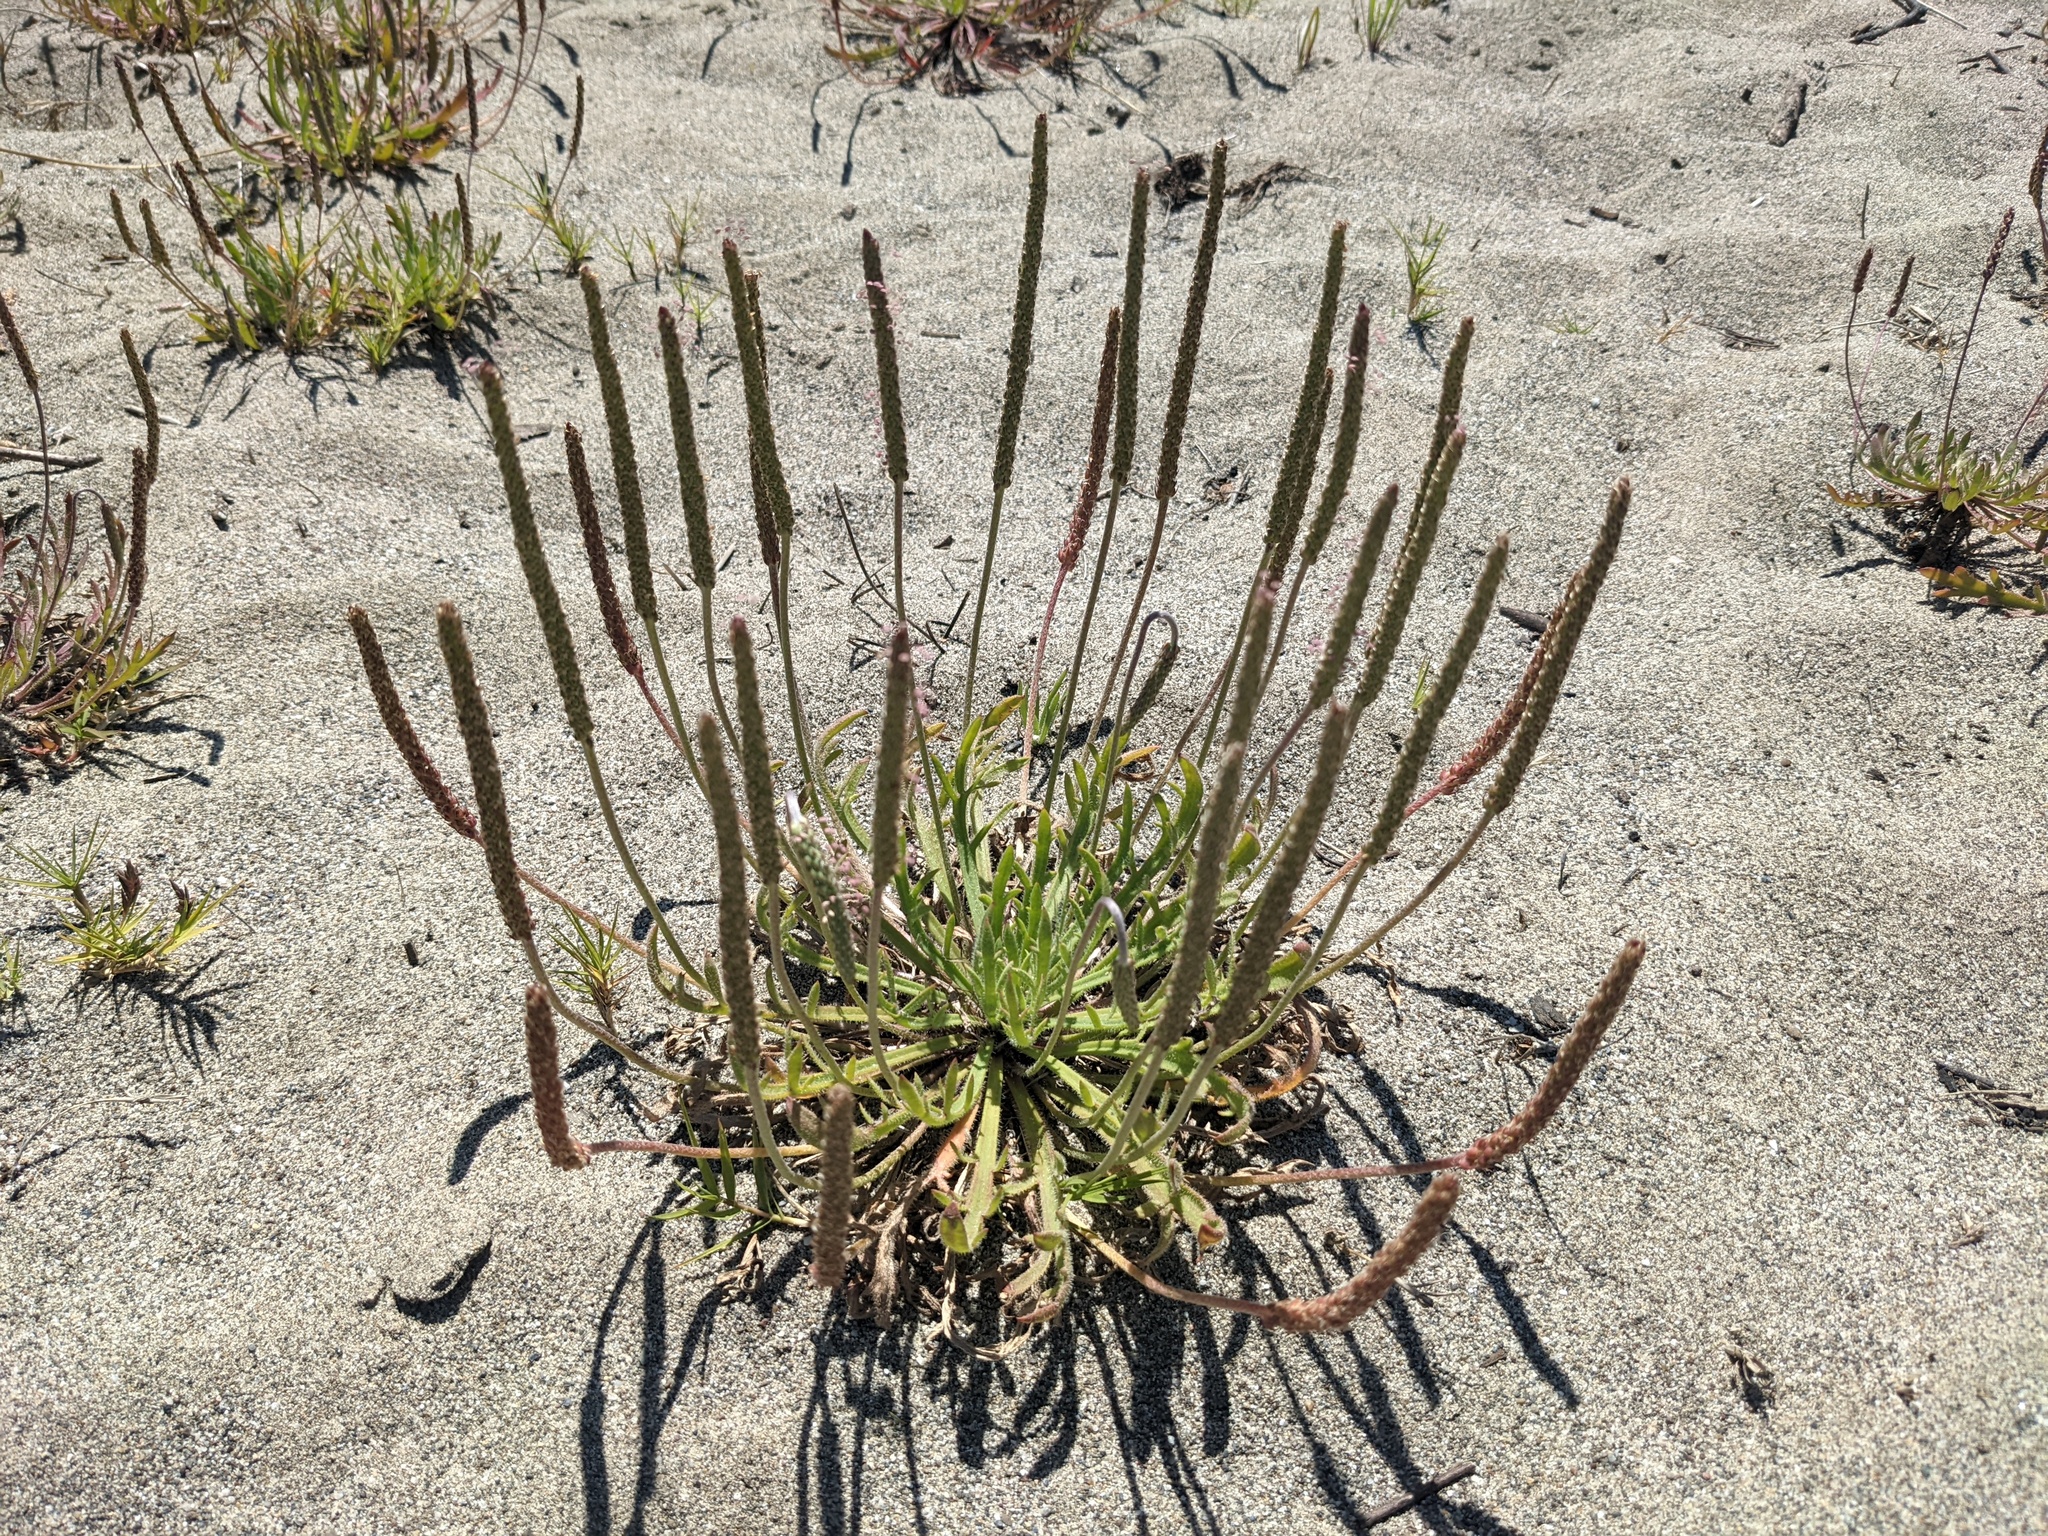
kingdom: Plantae
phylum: Tracheophyta
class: Magnoliopsida
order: Lamiales
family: Plantaginaceae
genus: Plantago
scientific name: Plantago coronopus
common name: Buck's-horn plantain
